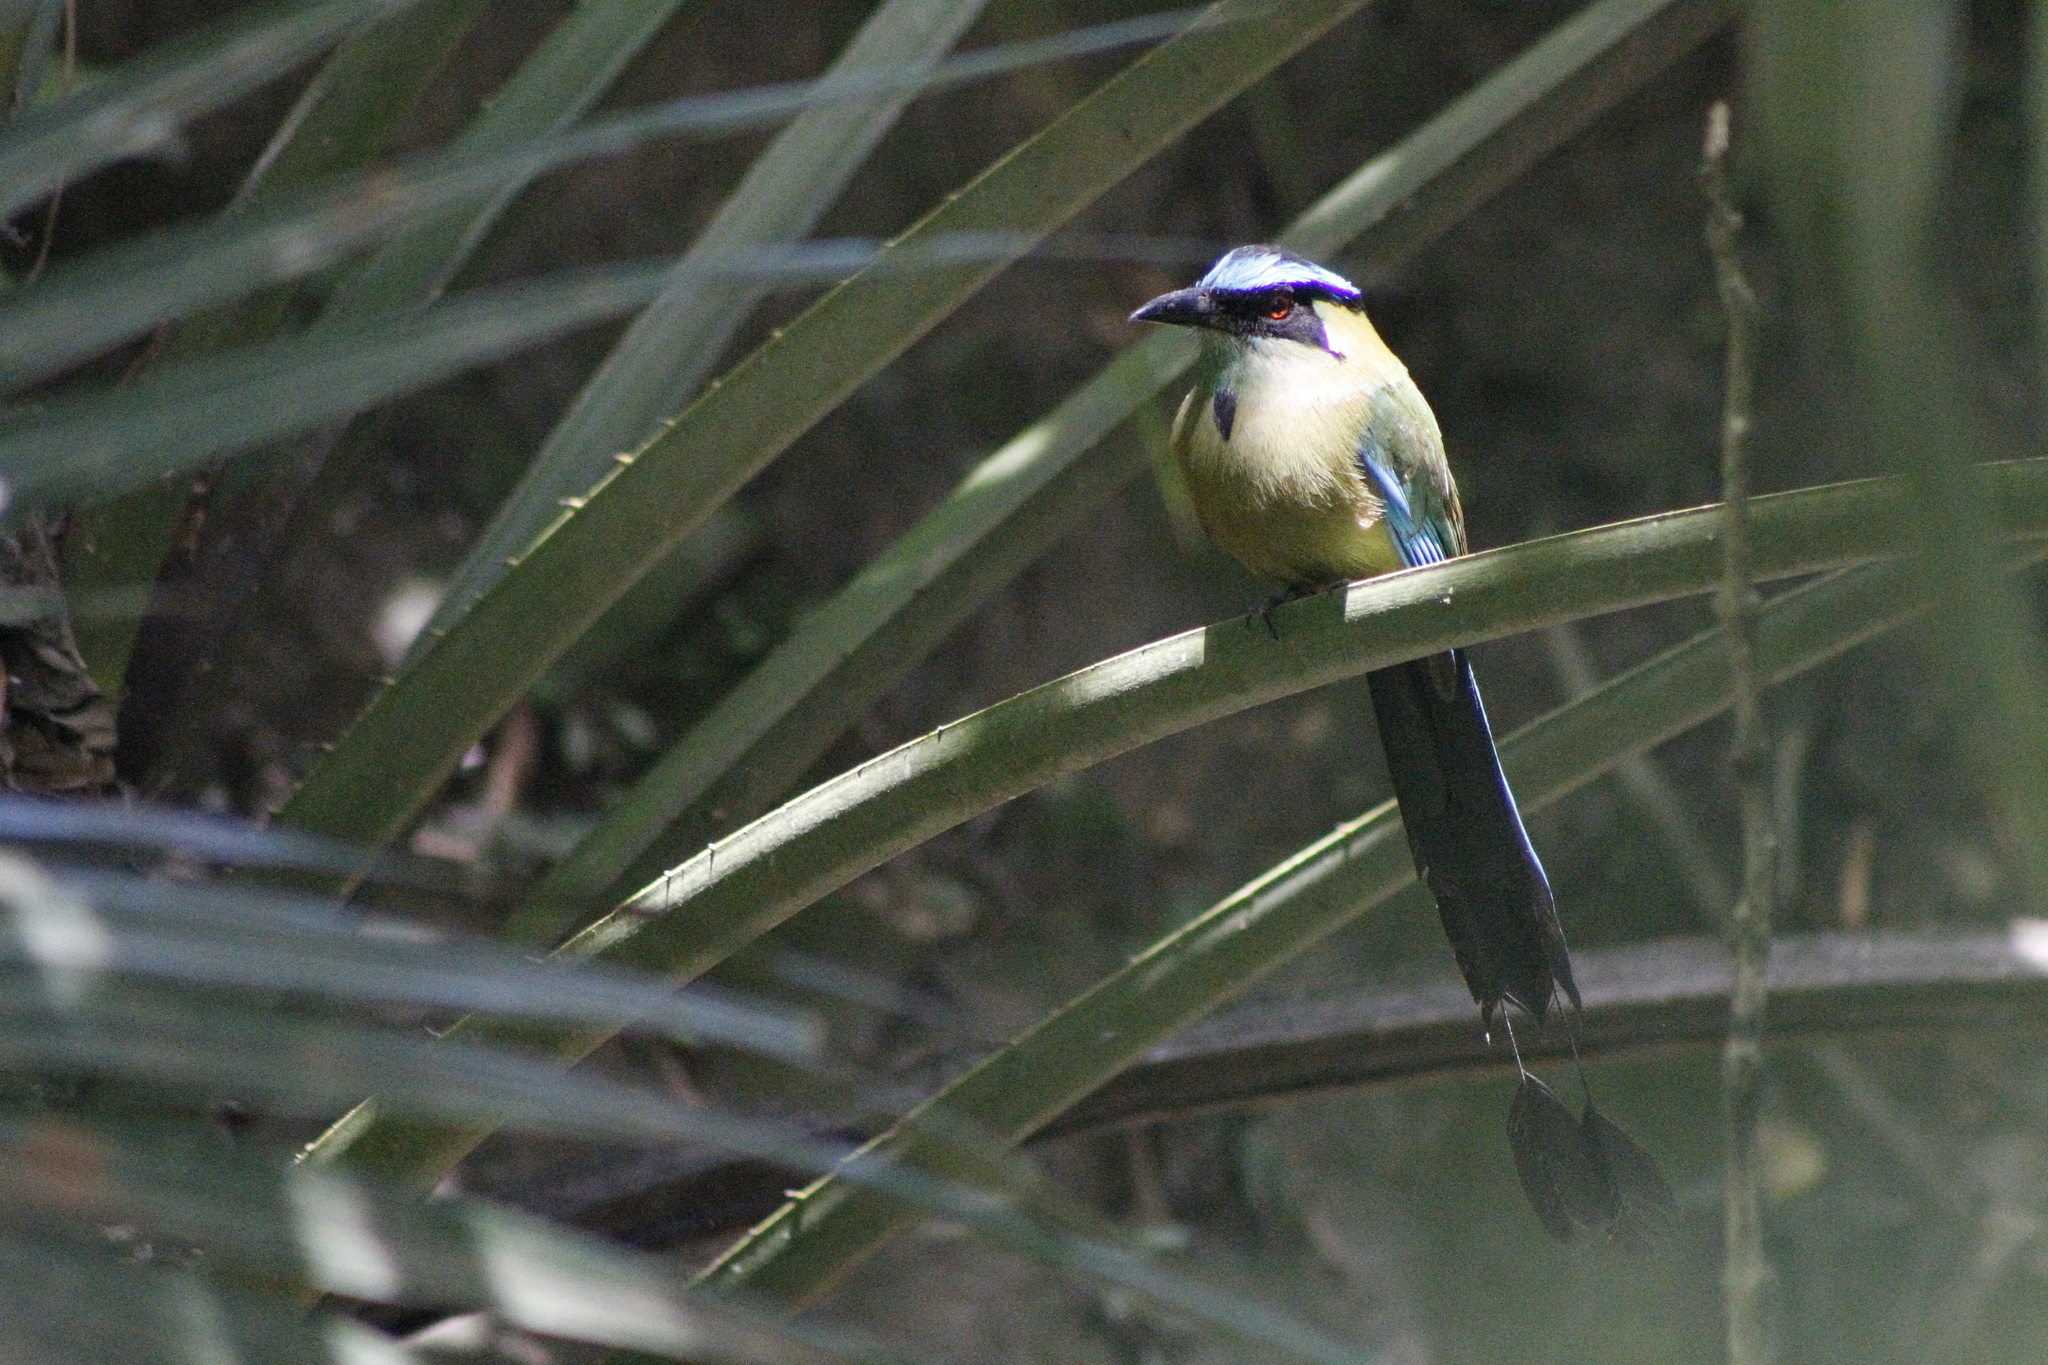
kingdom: Animalia
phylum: Chordata
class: Aves
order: Coraciiformes
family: Momotidae
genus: Momotus
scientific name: Momotus aequatorialis
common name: Andean motmot
